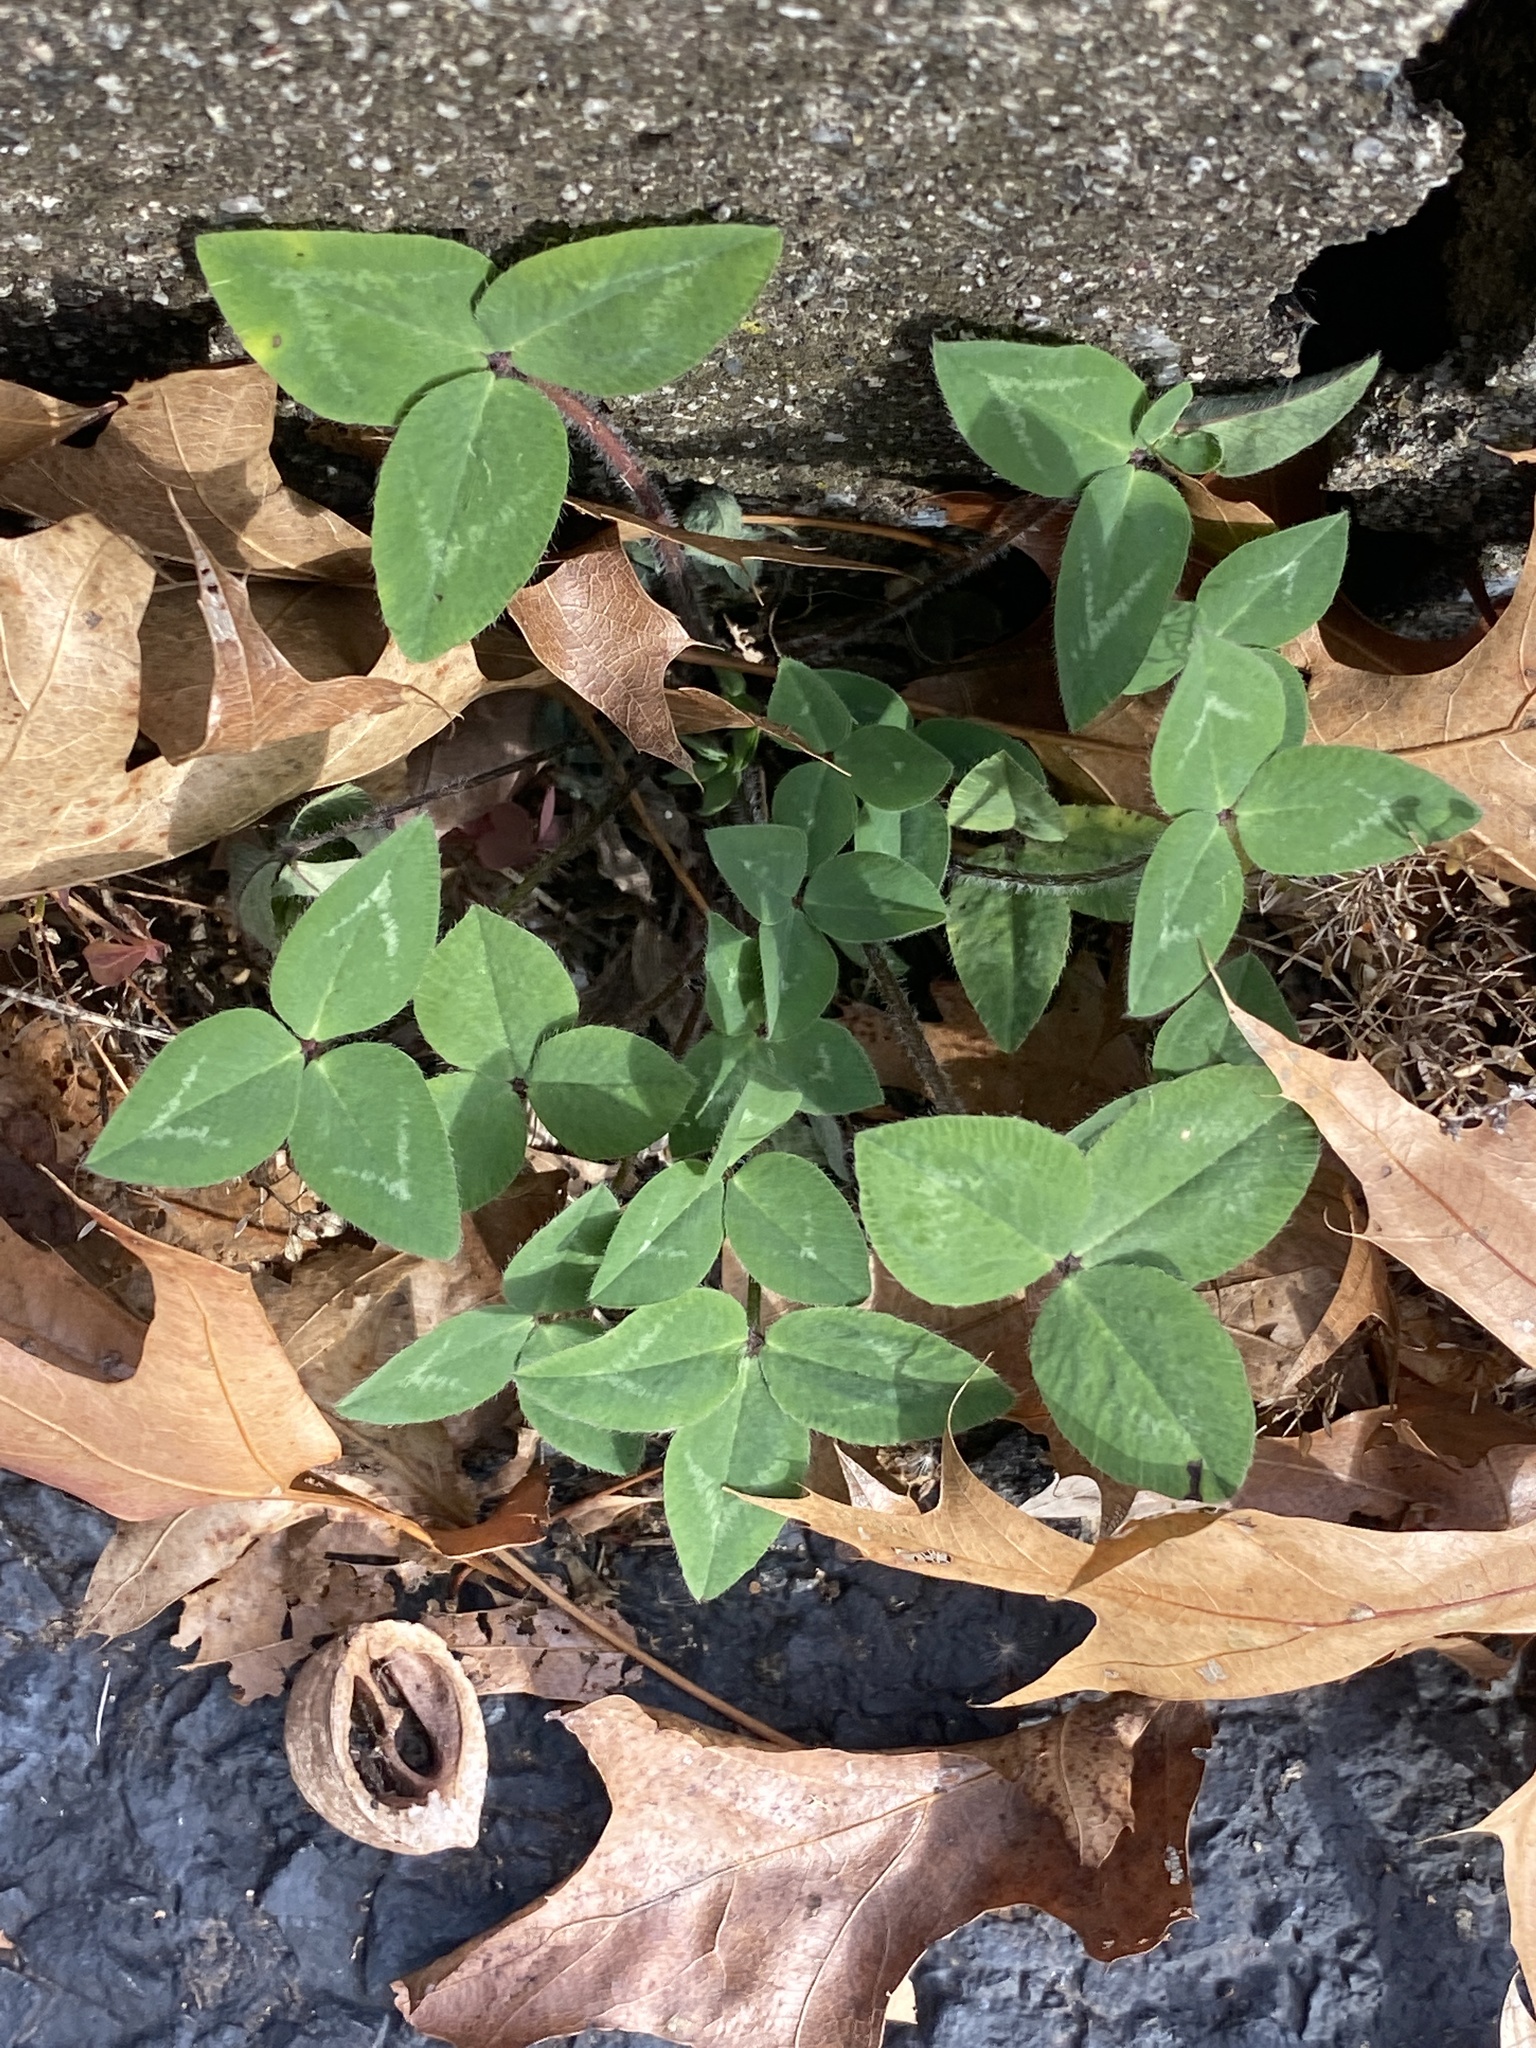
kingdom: Plantae
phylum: Tracheophyta
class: Magnoliopsida
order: Fabales
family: Fabaceae
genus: Trifolium
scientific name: Trifolium pratense
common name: Red clover
